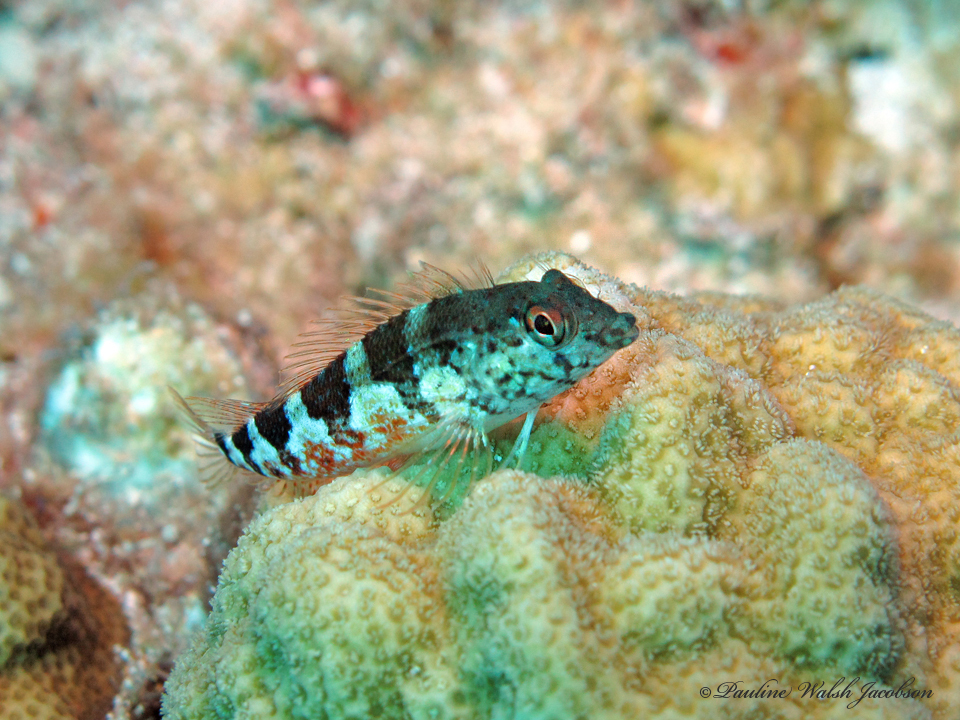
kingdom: Animalia
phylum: Chordata
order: Perciformes
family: Labrisomidae
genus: Malacoctenus
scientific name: Malacoctenus triangulatus
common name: Saddled blenny
